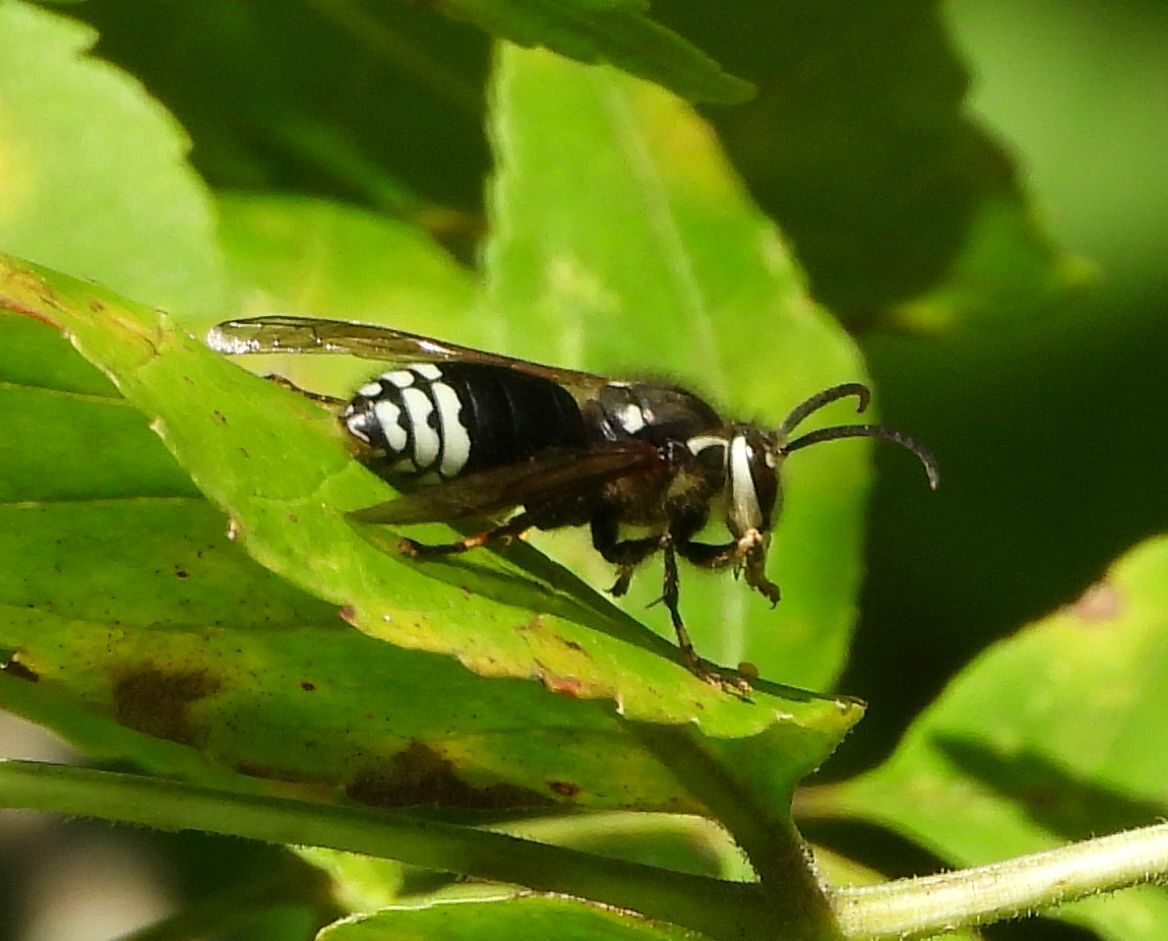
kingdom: Animalia
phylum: Arthropoda
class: Insecta
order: Hymenoptera
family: Vespidae
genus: Dolichovespula
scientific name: Dolichovespula maculata
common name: Bald-faced hornet
